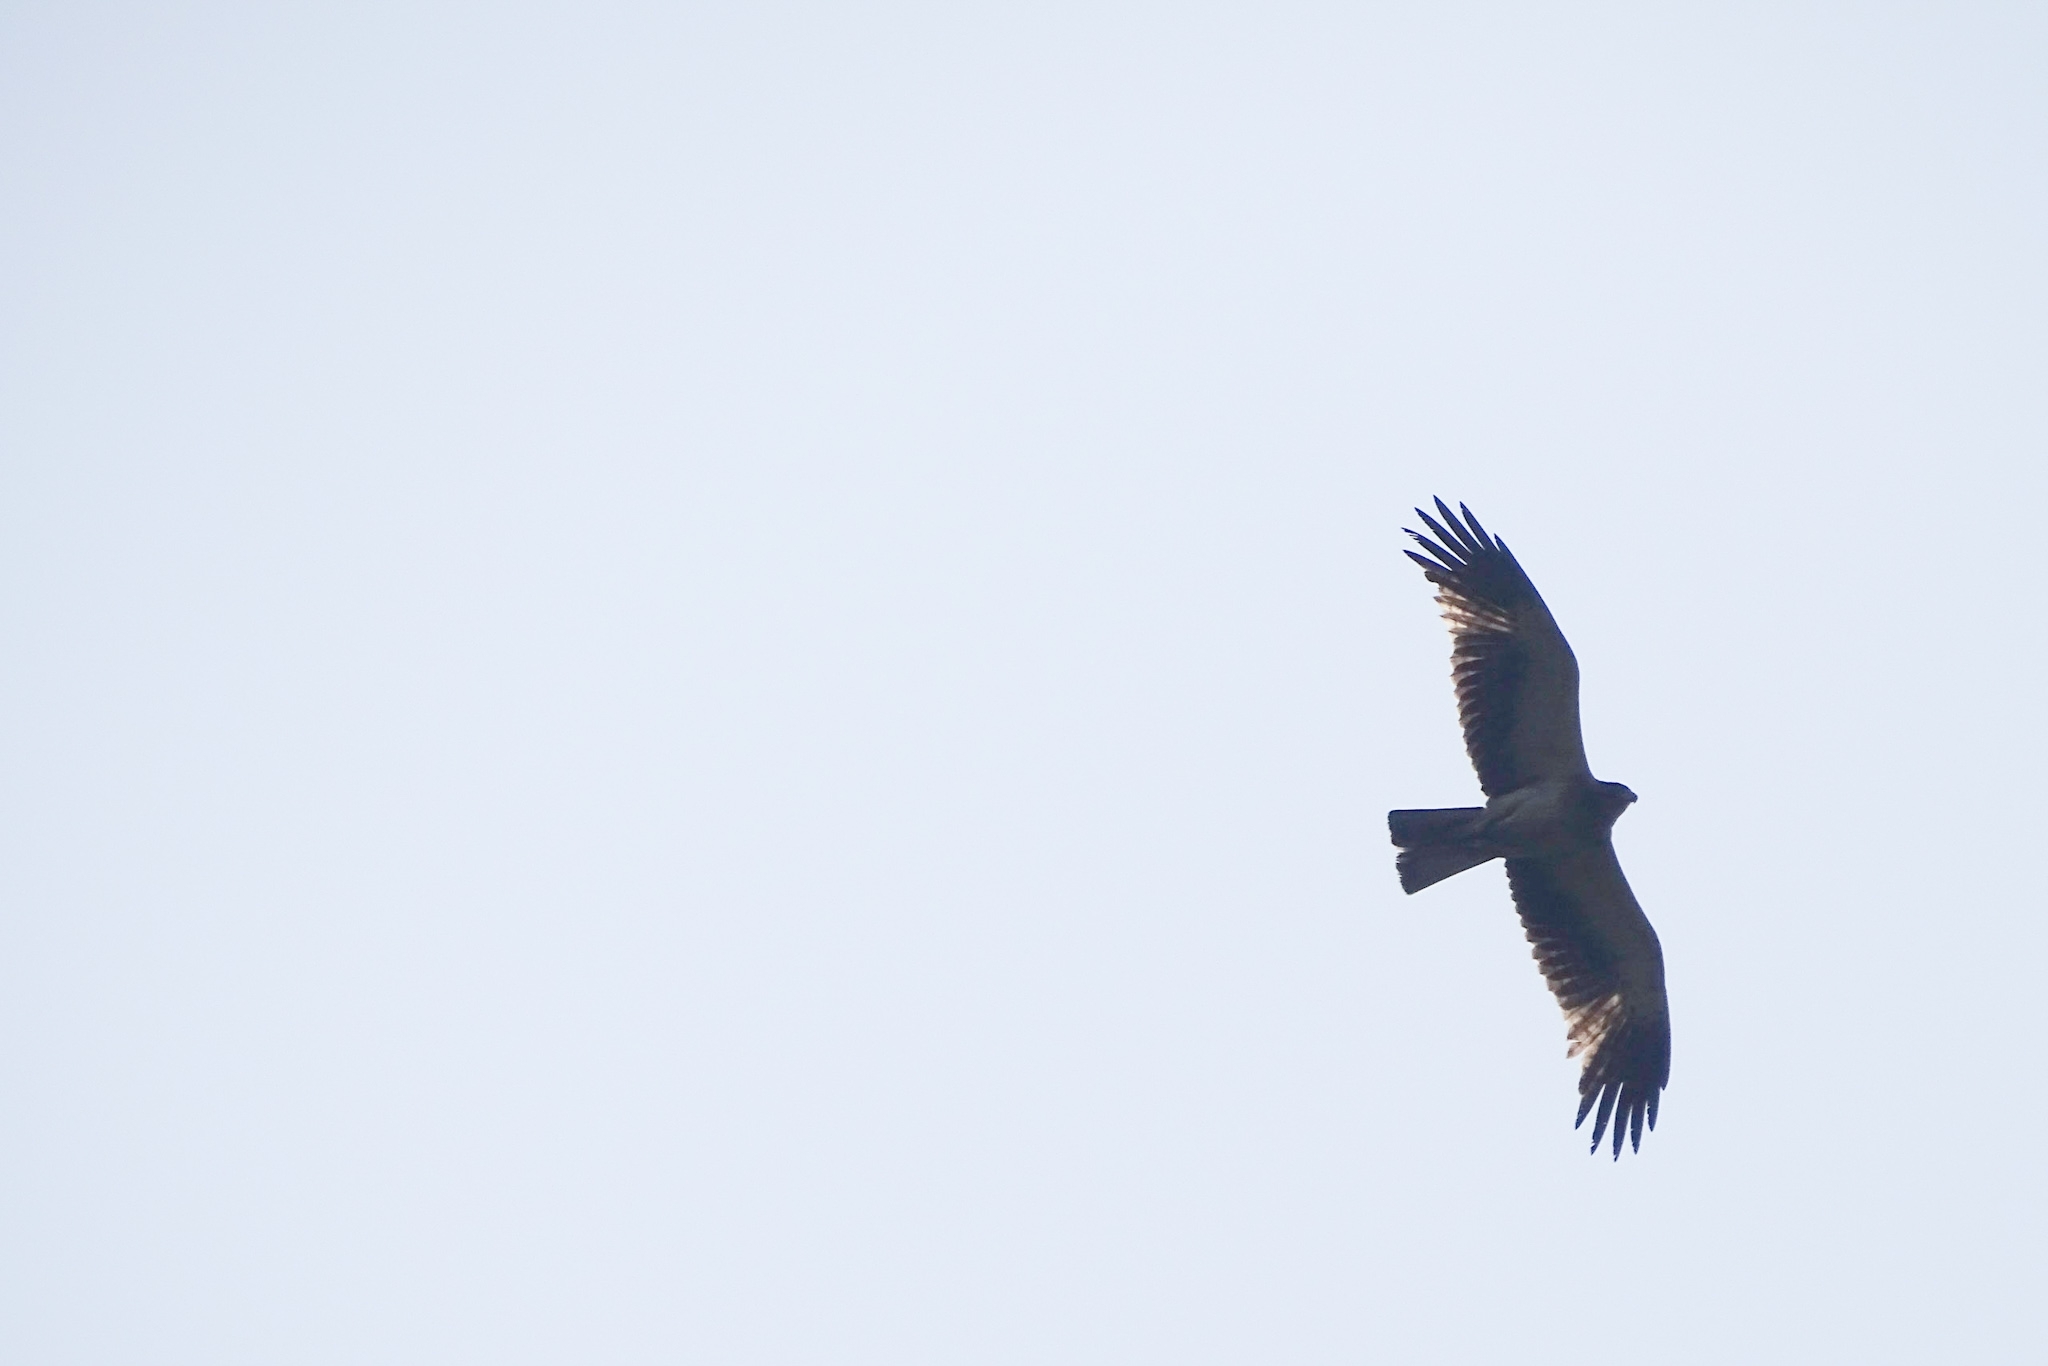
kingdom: Animalia
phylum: Chordata
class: Aves
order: Accipitriformes
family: Accipitridae
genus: Hieraaetus
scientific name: Hieraaetus pennatus
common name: Booted eagle
